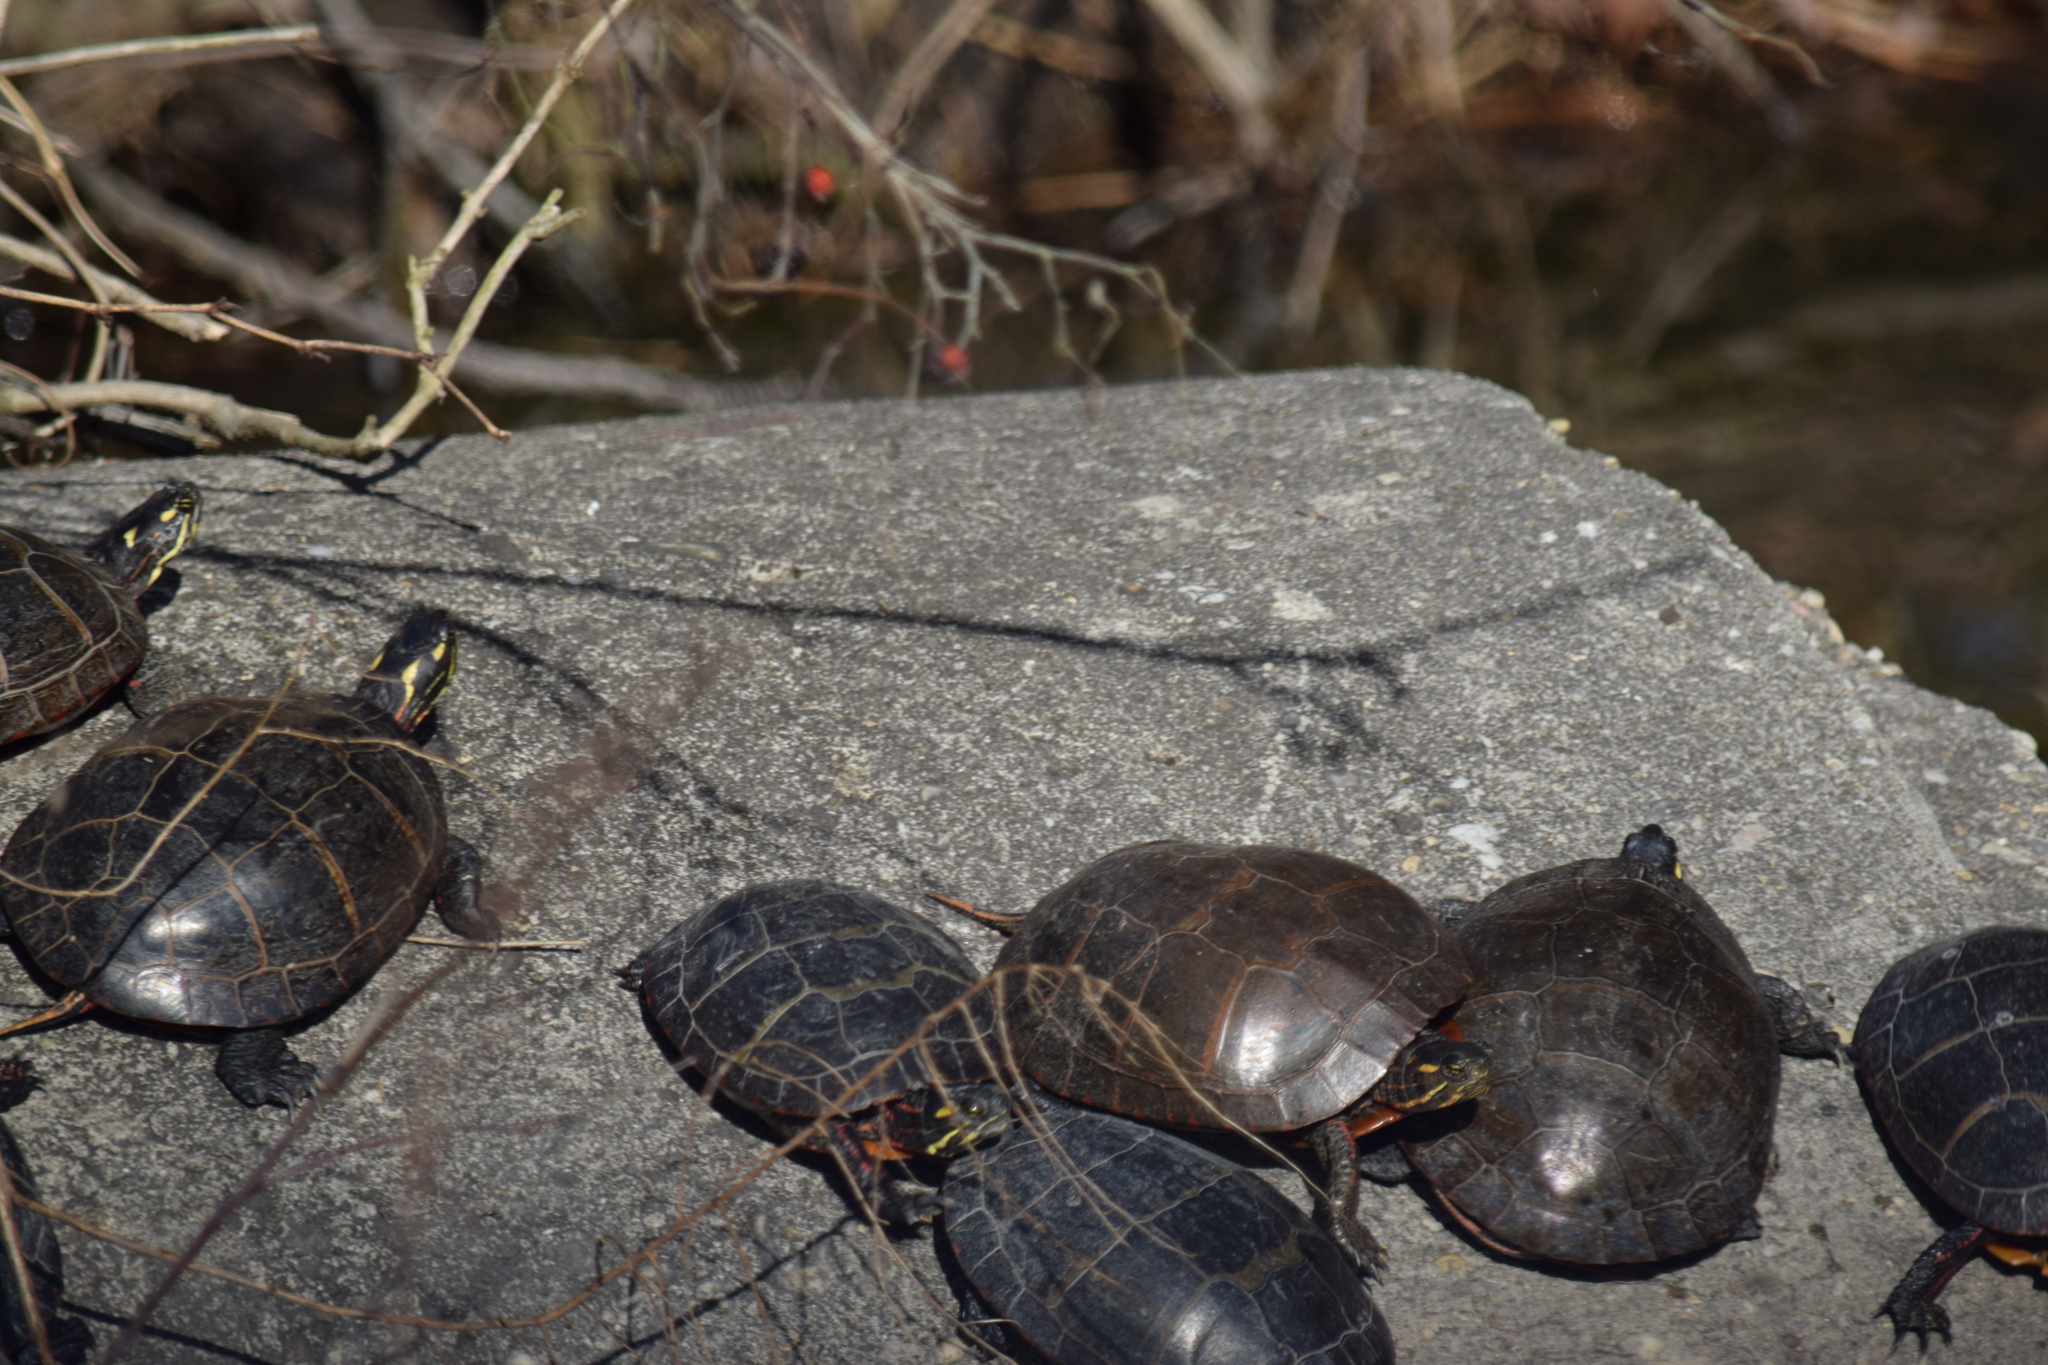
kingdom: Animalia
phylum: Chordata
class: Testudines
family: Emydidae
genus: Chrysemys
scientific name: Chrysemys picta
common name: Painted turtle
